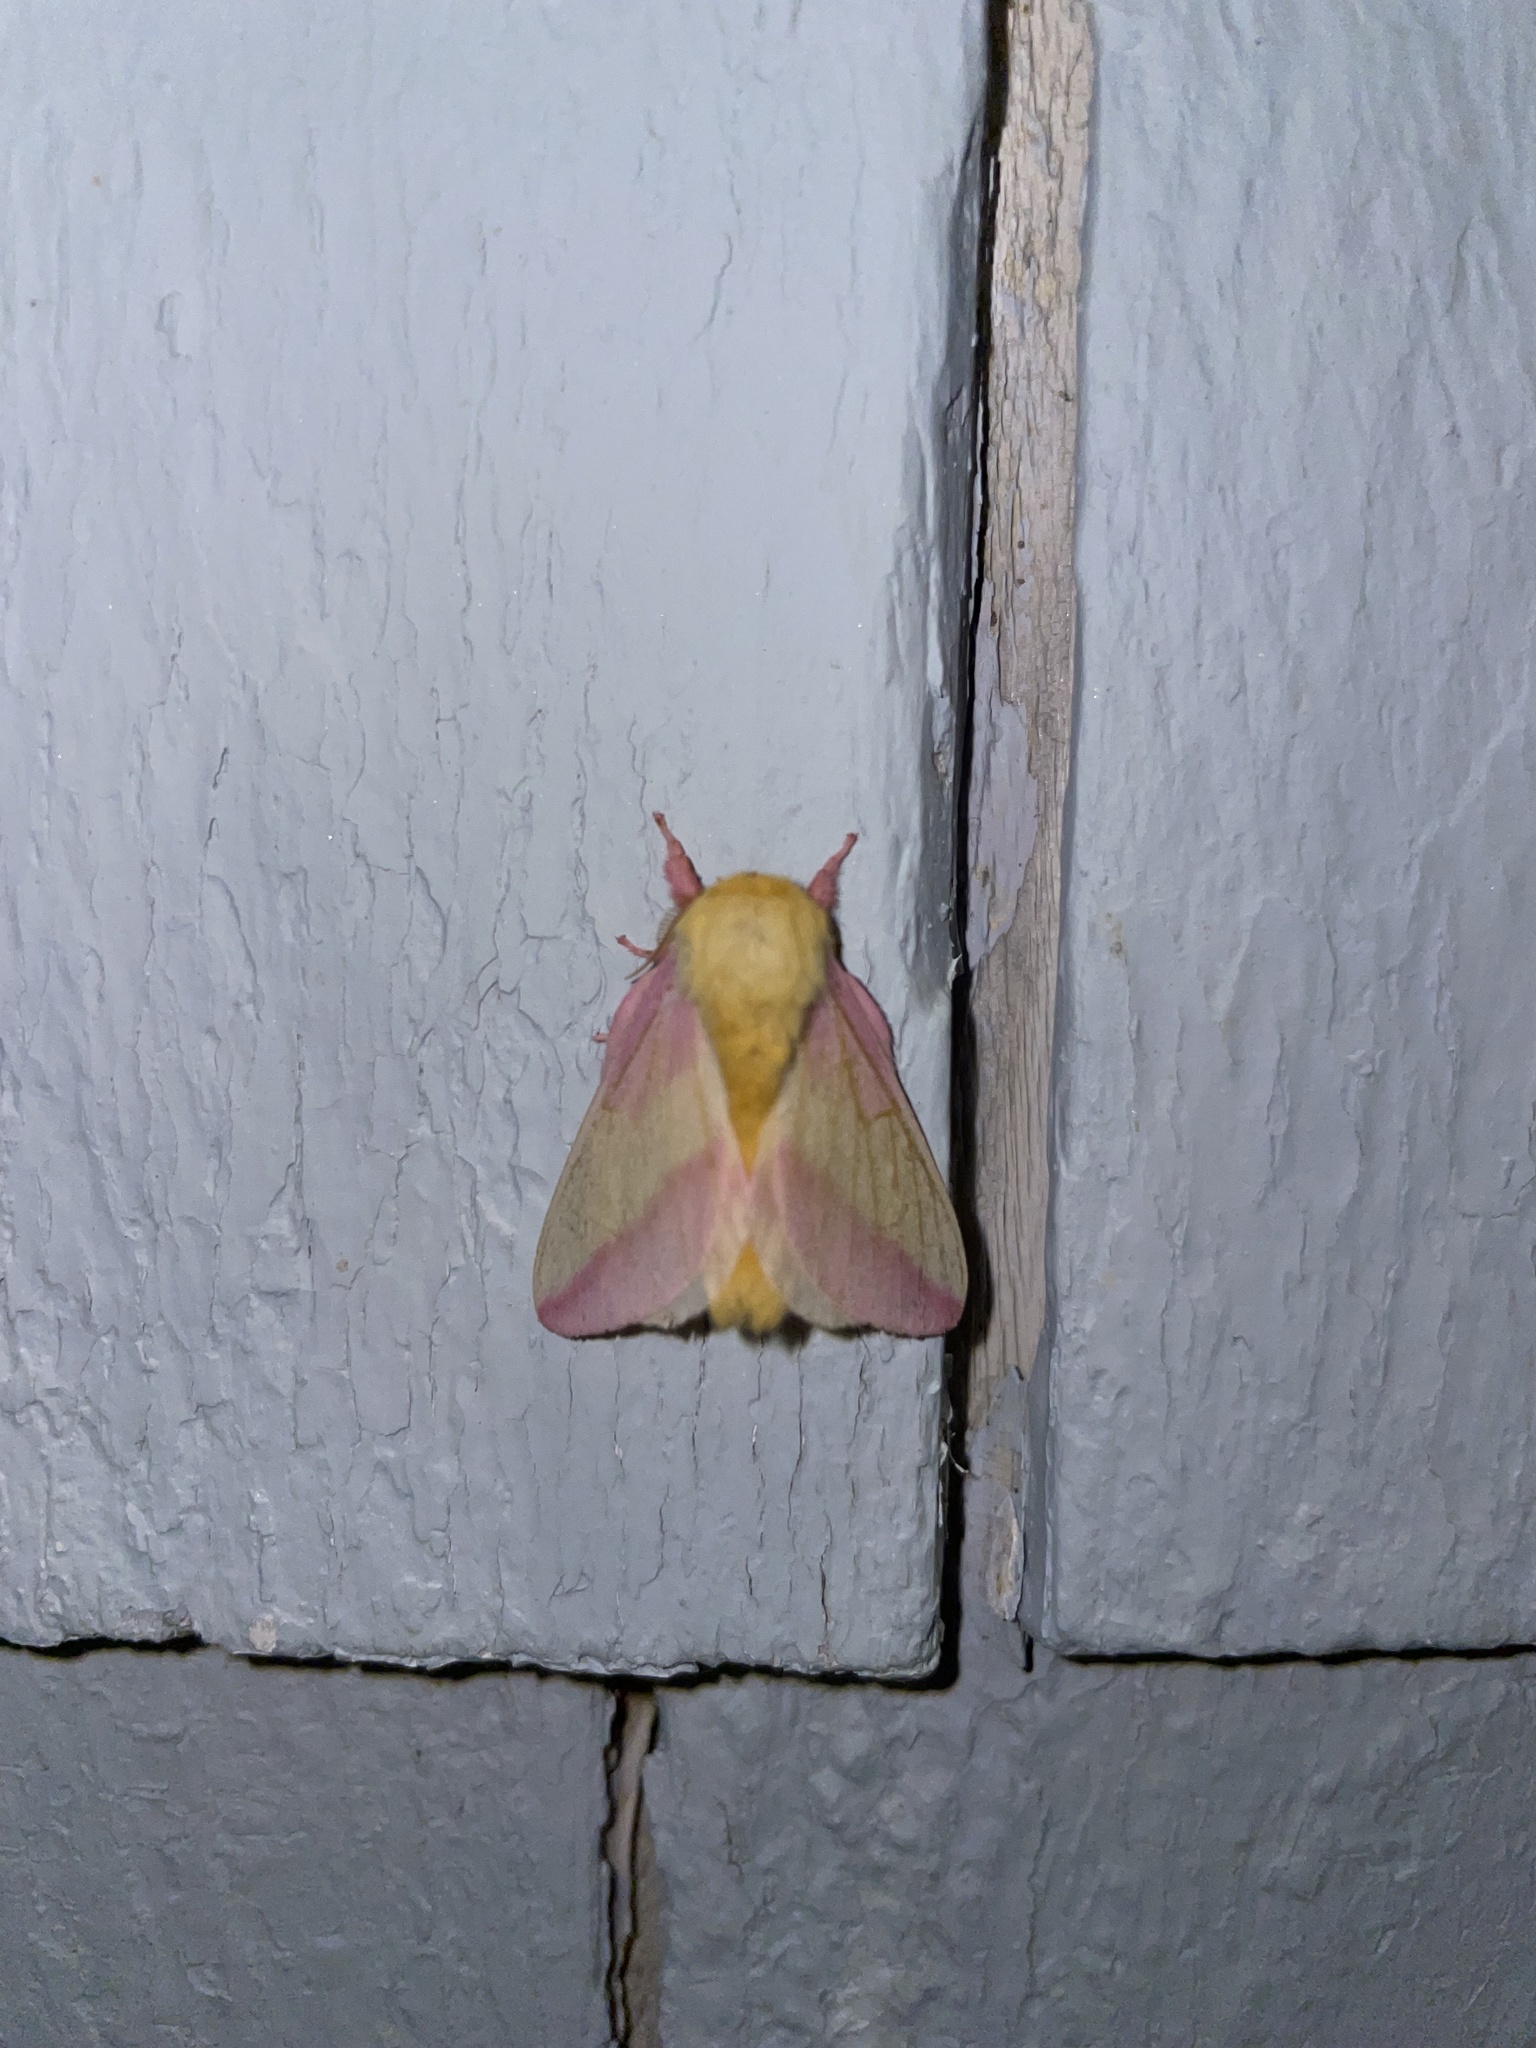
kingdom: Animalia
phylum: Arthropoda
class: Insecta
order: Lepidoptera
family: Saturniidae
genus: Dryocampa
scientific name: Dryocampa rubicunda
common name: Rosy maple moth
